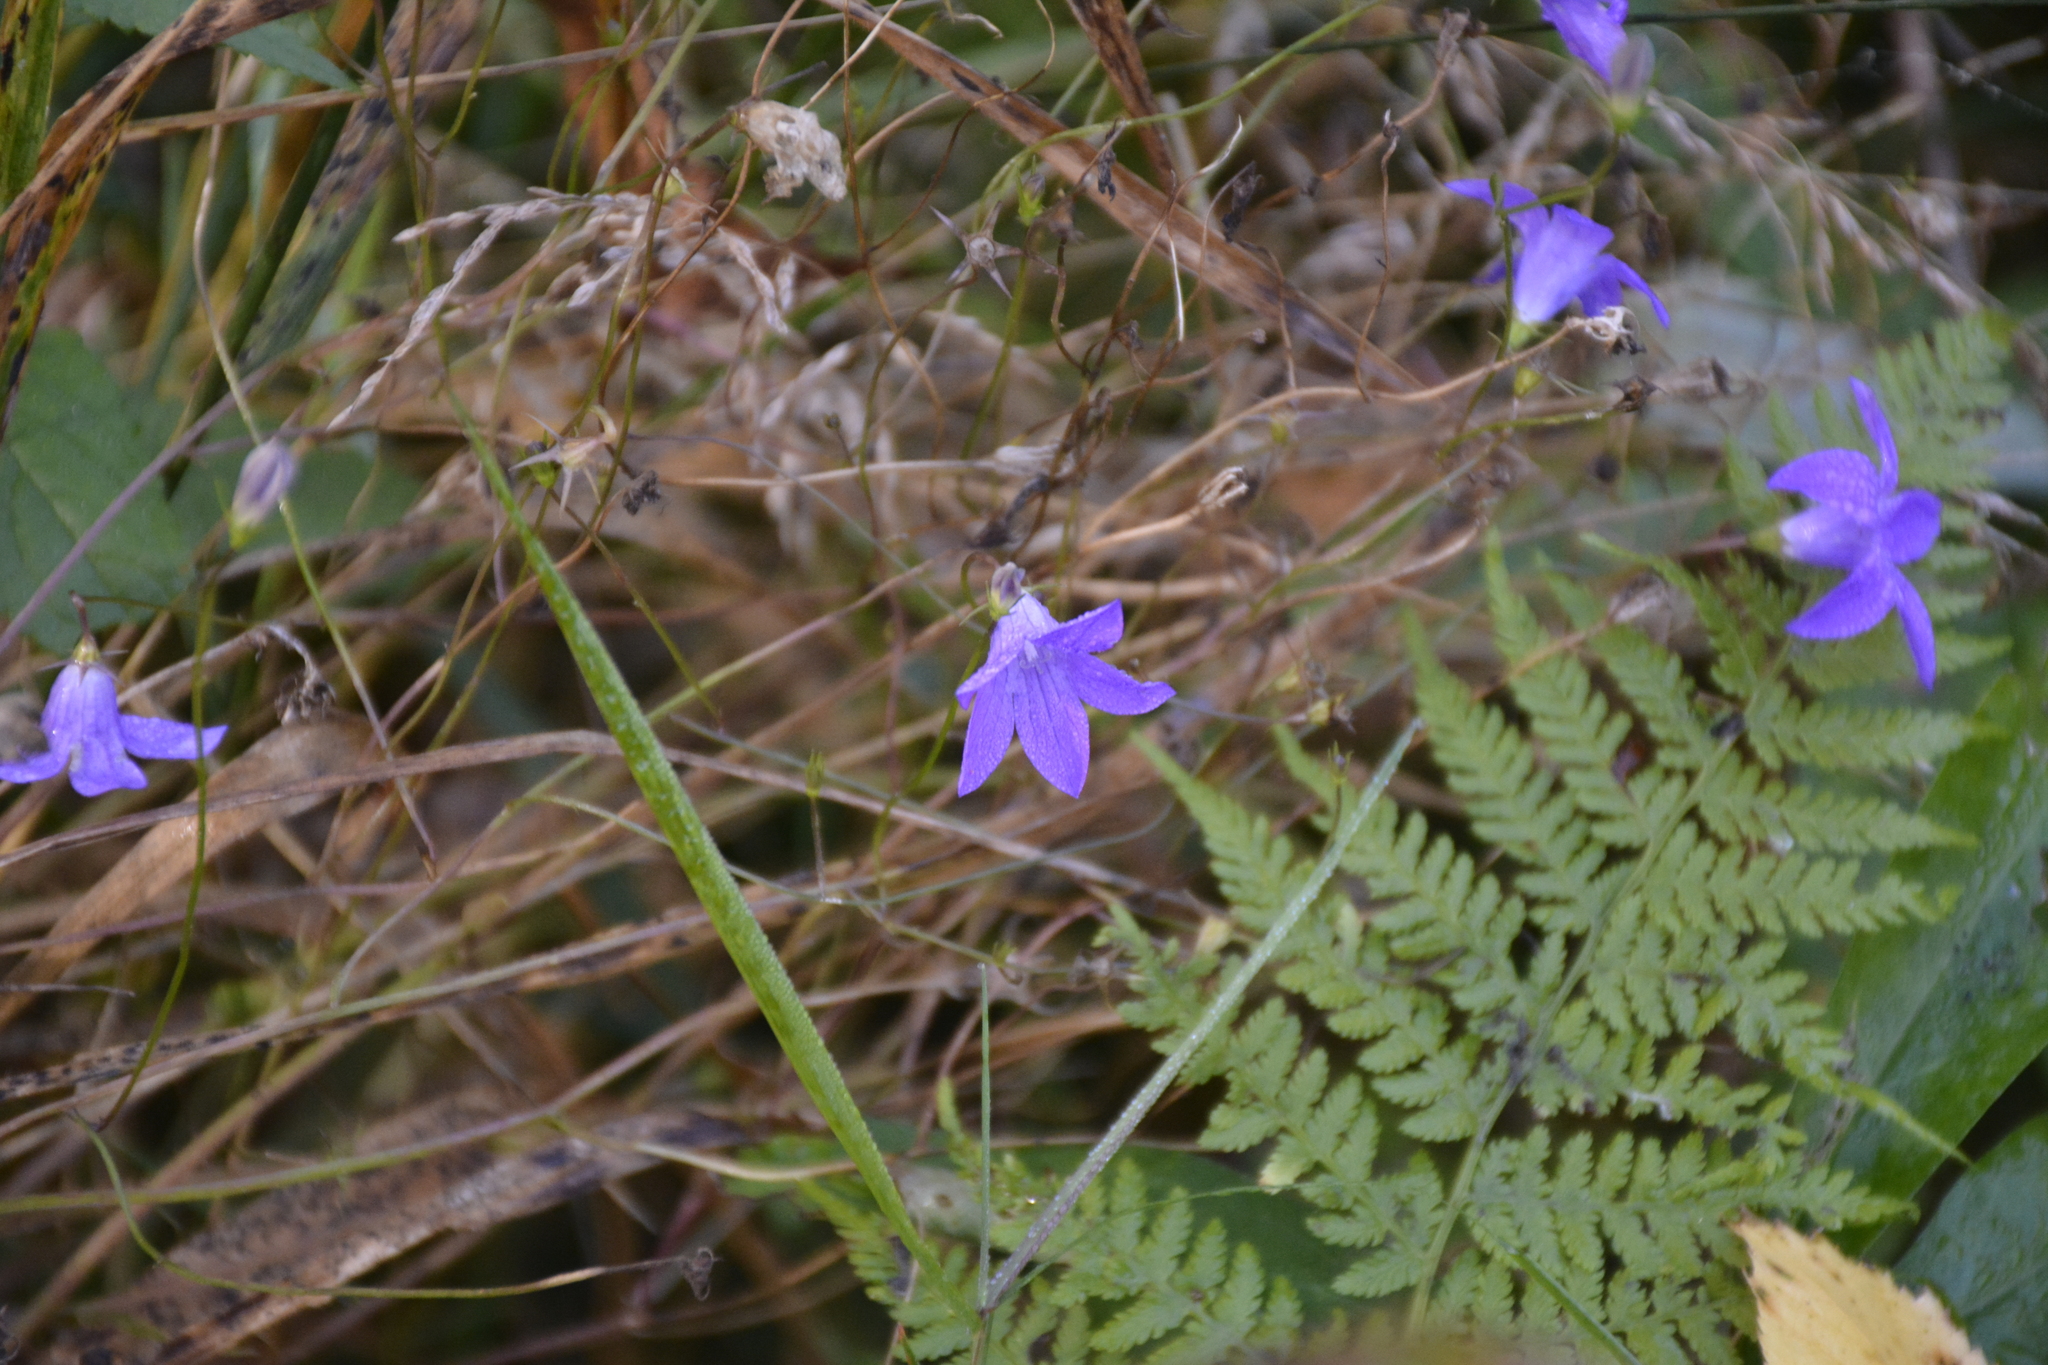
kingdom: Plantae
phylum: Tracheophyta
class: Magnoliopsida
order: Asterales
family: Campanulaceae
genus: Campanula
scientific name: Campanula patula
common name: Spreading bellflower
